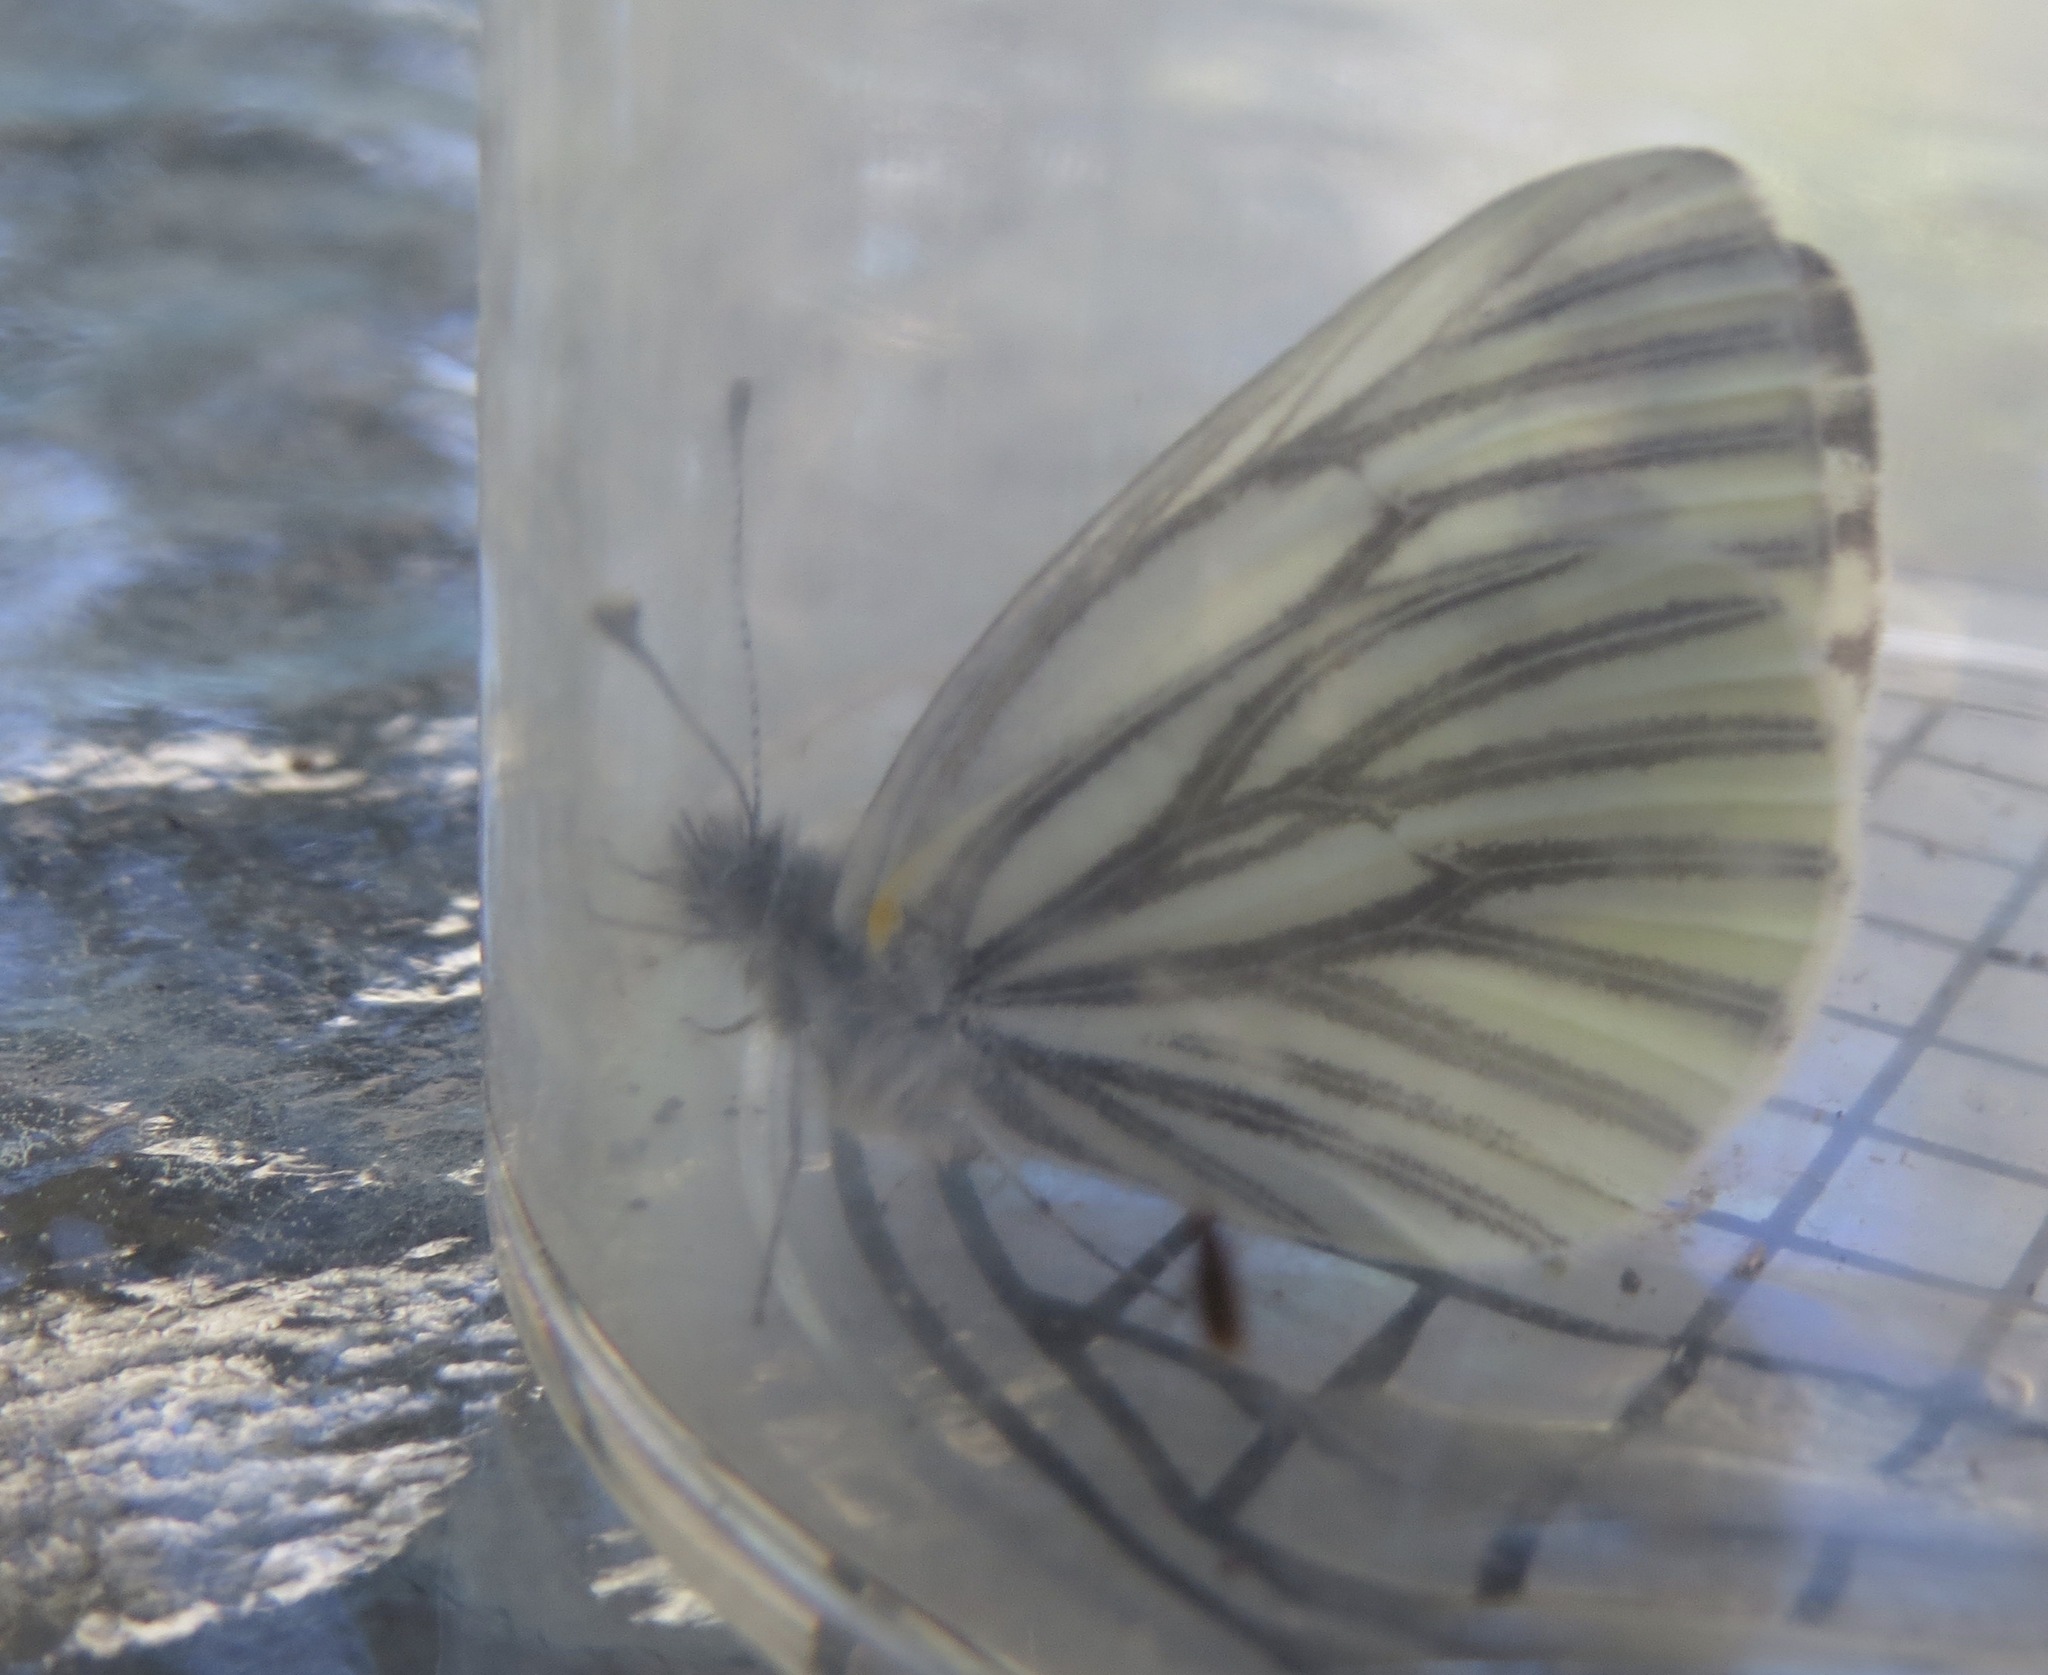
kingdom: Animalia
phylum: Arthropoda
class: Insecta
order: Lepidoptera
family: Pieridae
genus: Pieris
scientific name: Pieris marginalis
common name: Margined white
